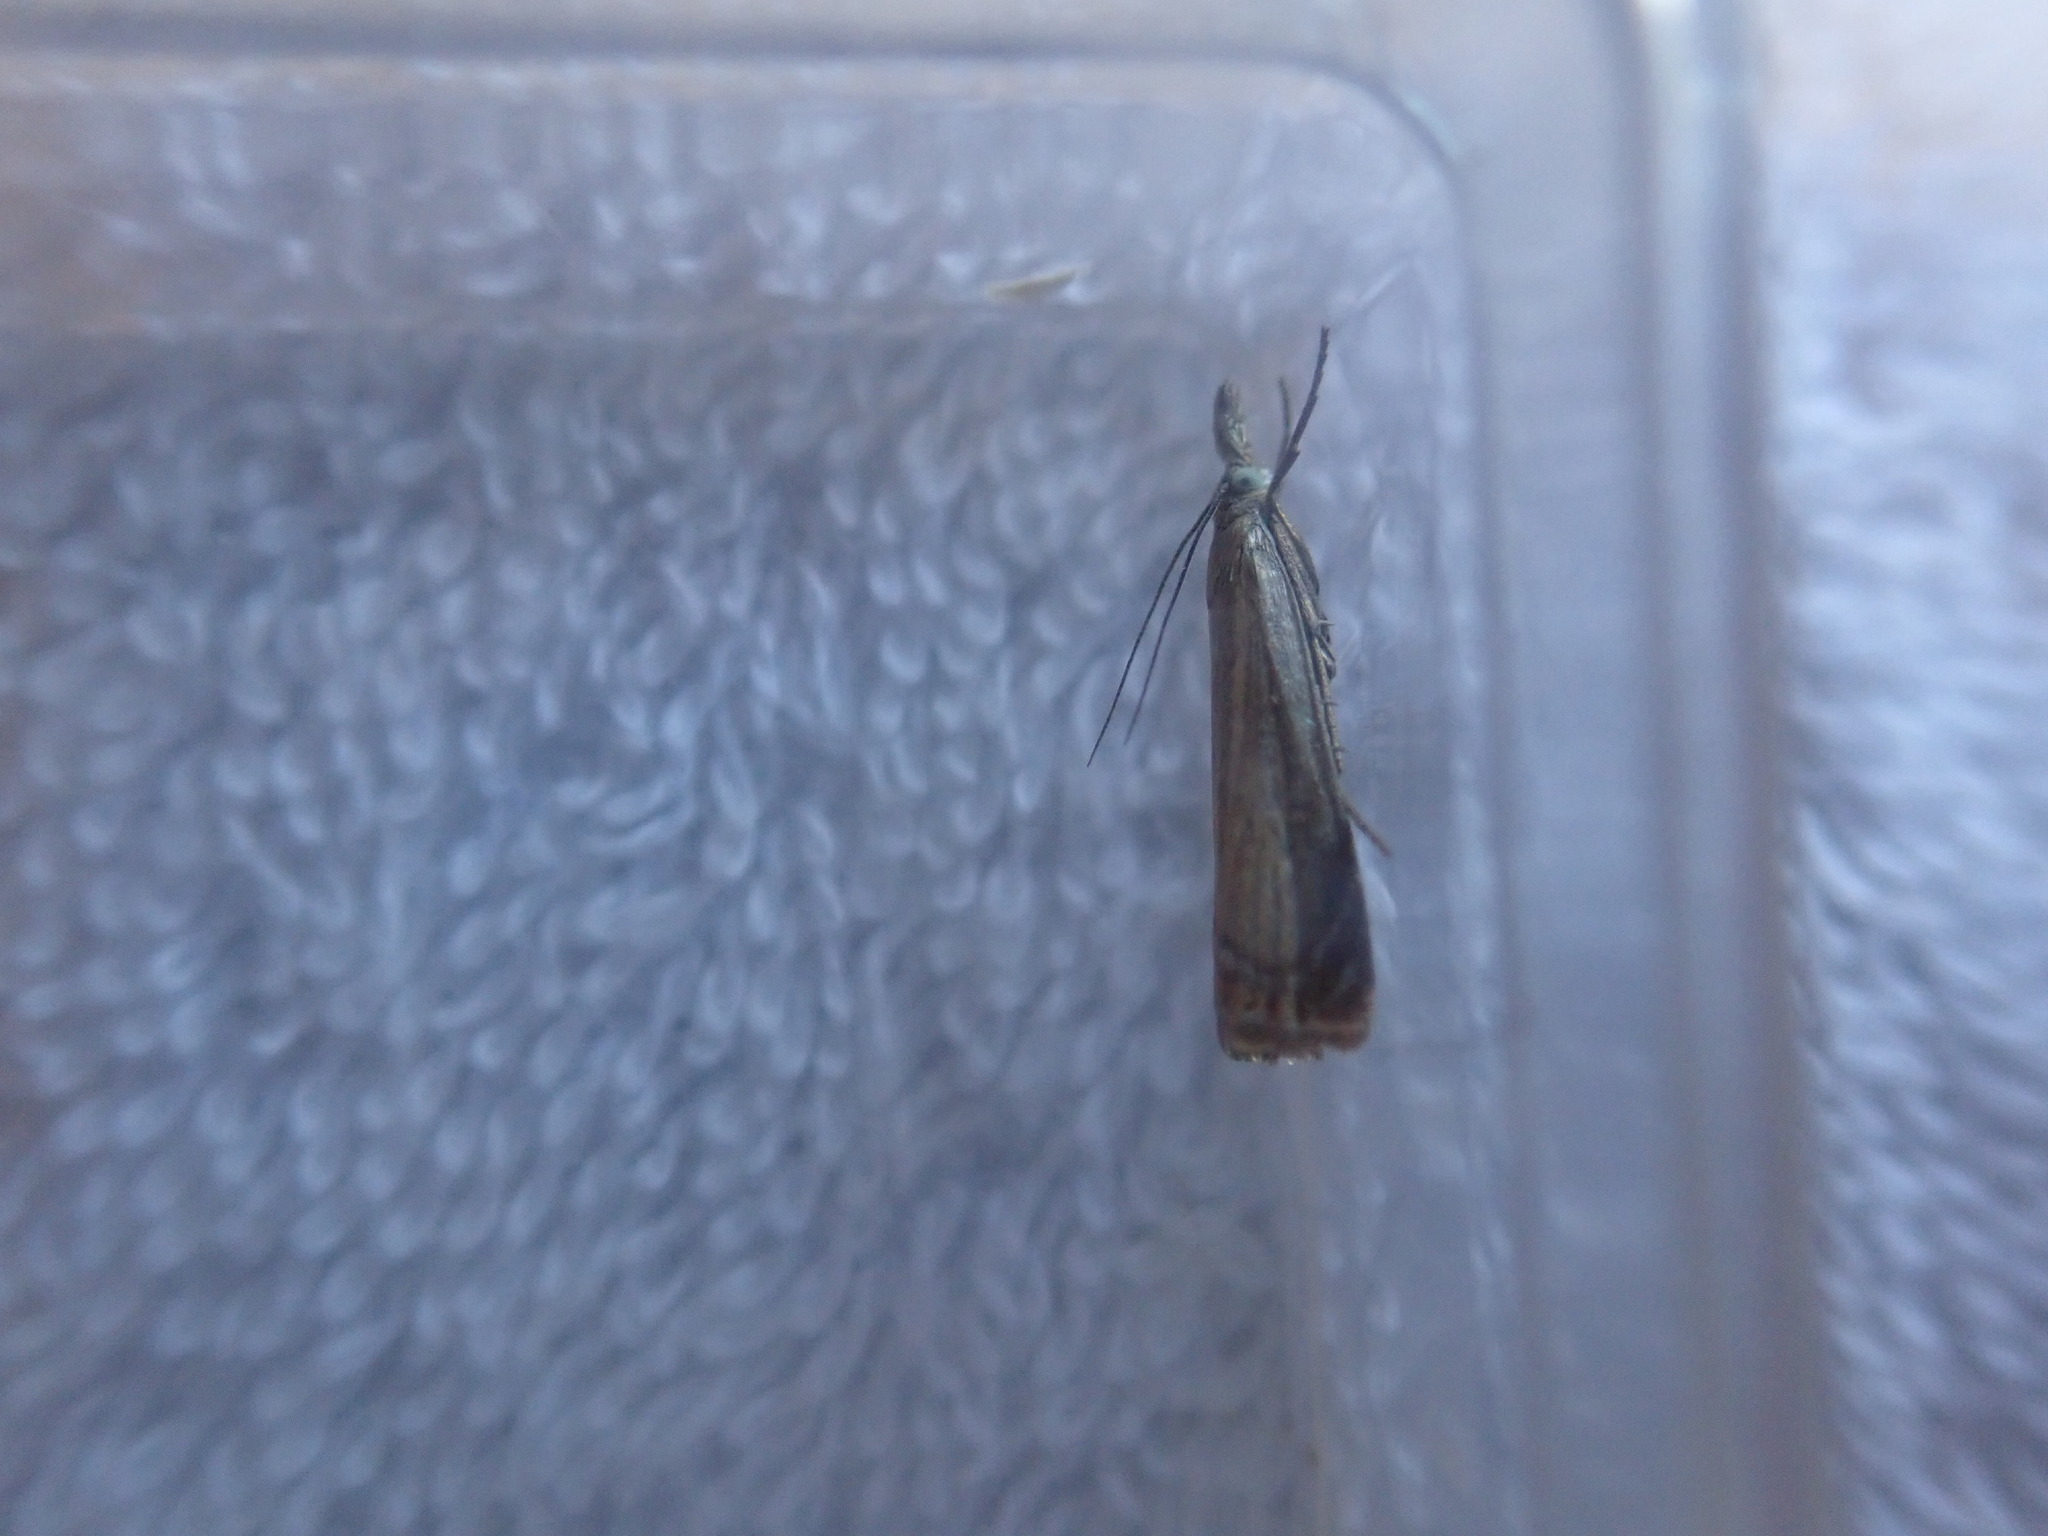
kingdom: Animalia
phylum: Arthropoda
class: Insecta
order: Lepidoptera
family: Crambidae
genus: Chrysoteuchia
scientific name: Chrysoteuchia culmella
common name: Garden grass-veneer
